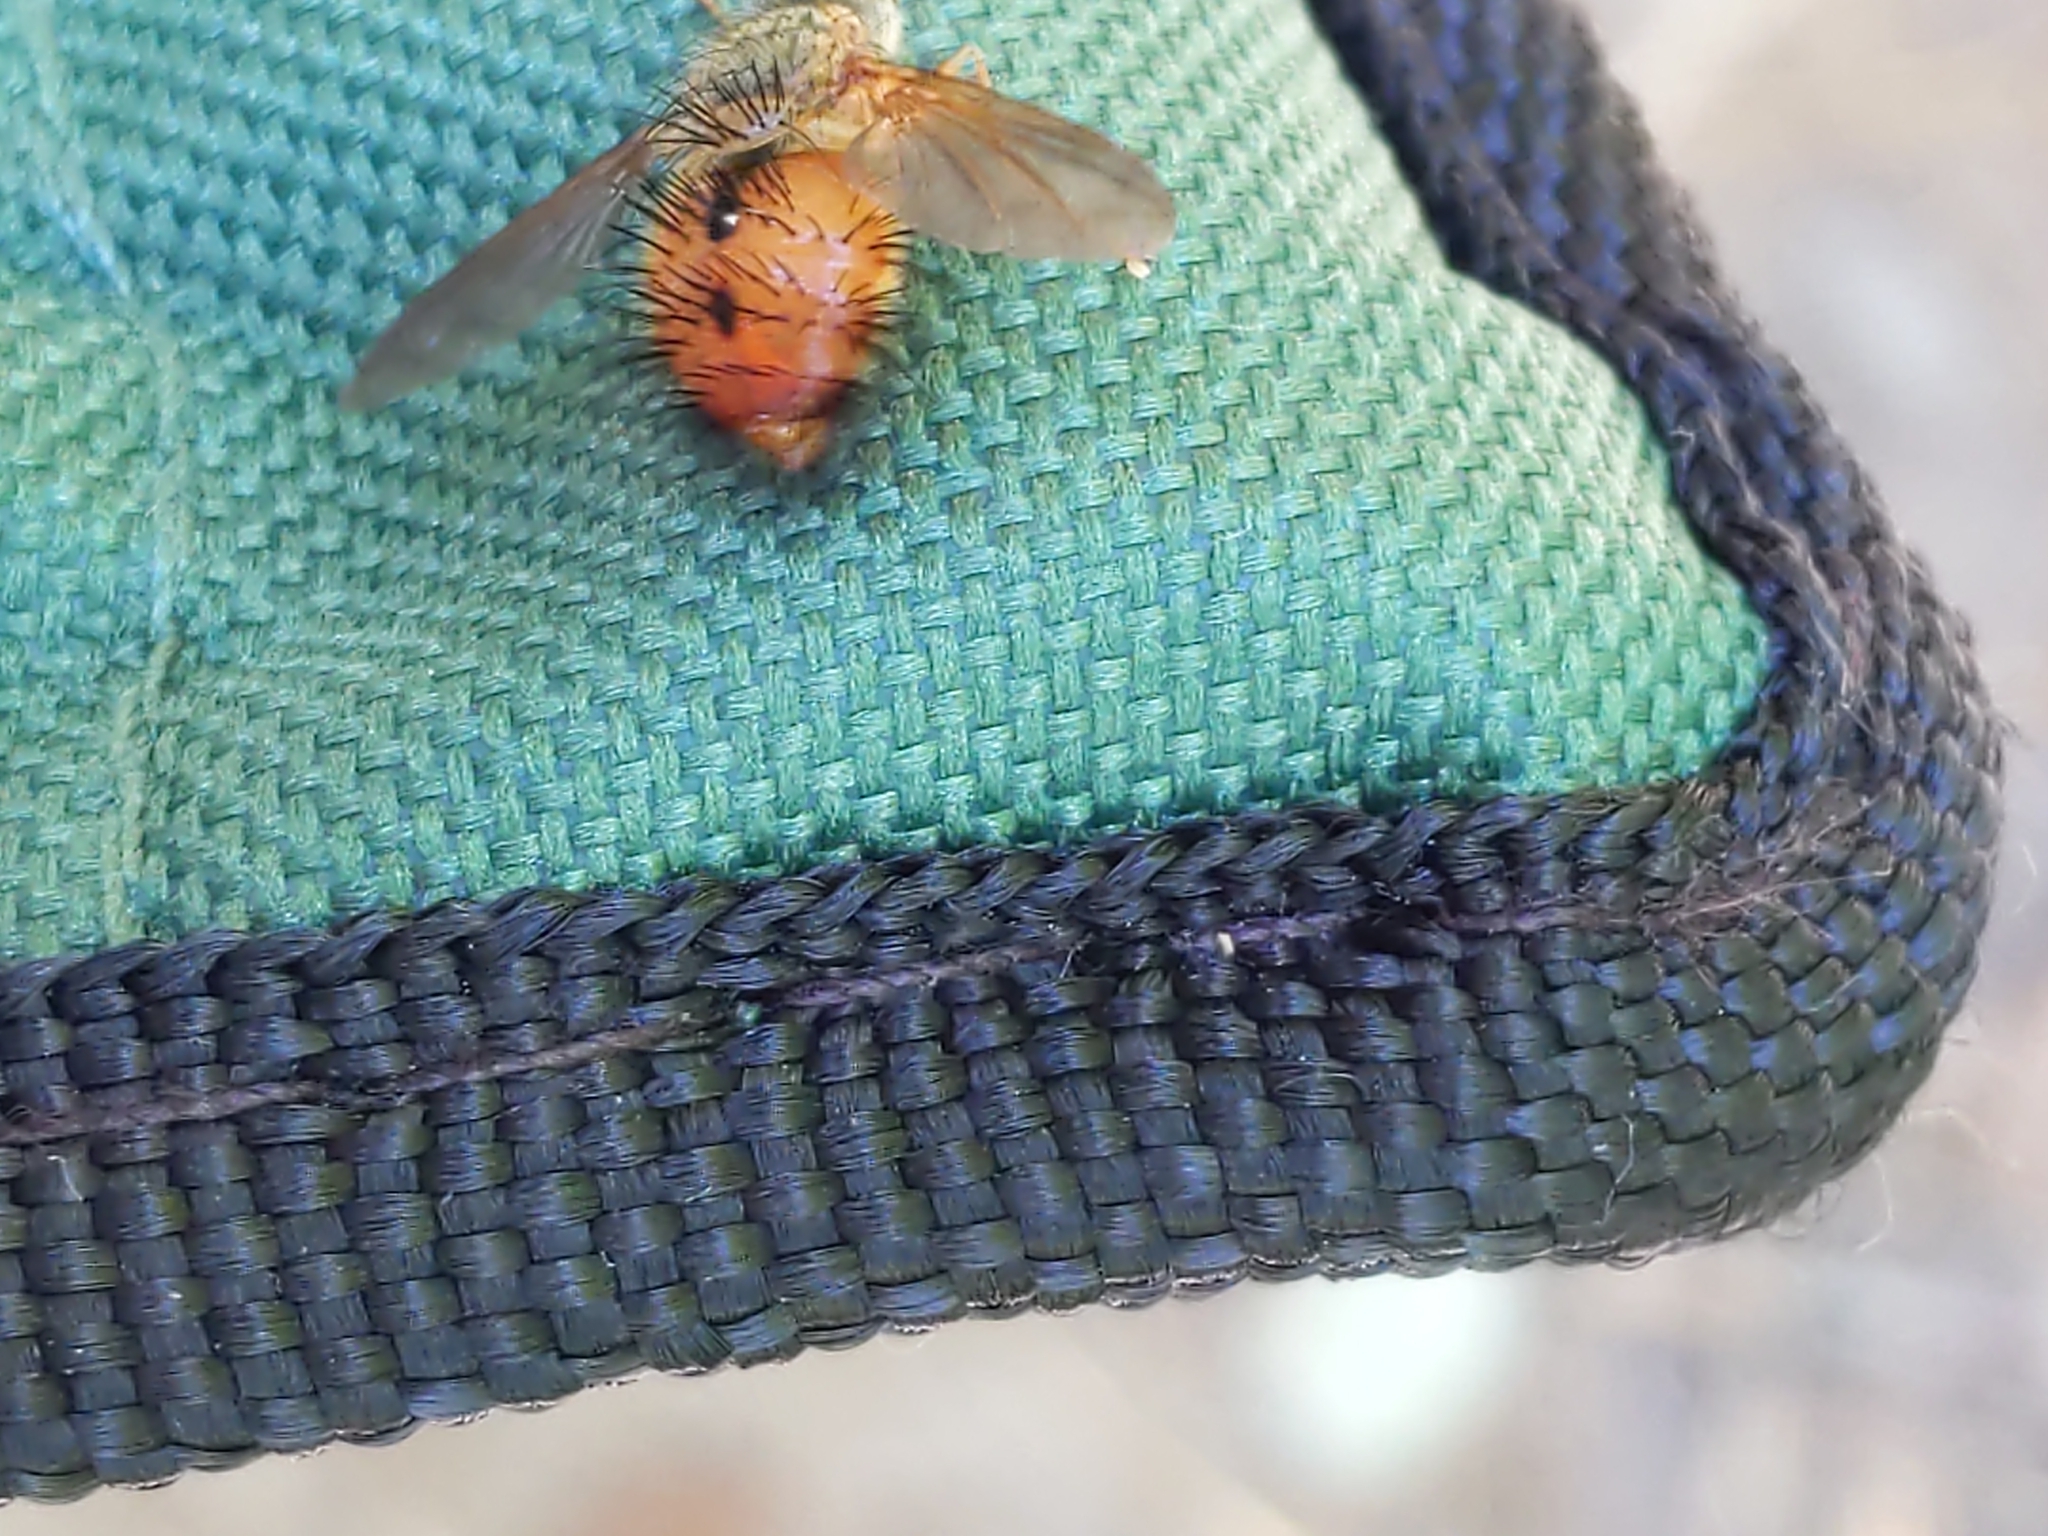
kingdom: Animalia
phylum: Arthropoda
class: Insecta
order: Diptera
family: Tachinidae
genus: Hystricia
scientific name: Hystricia abrupta
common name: Tomato bristle fly
